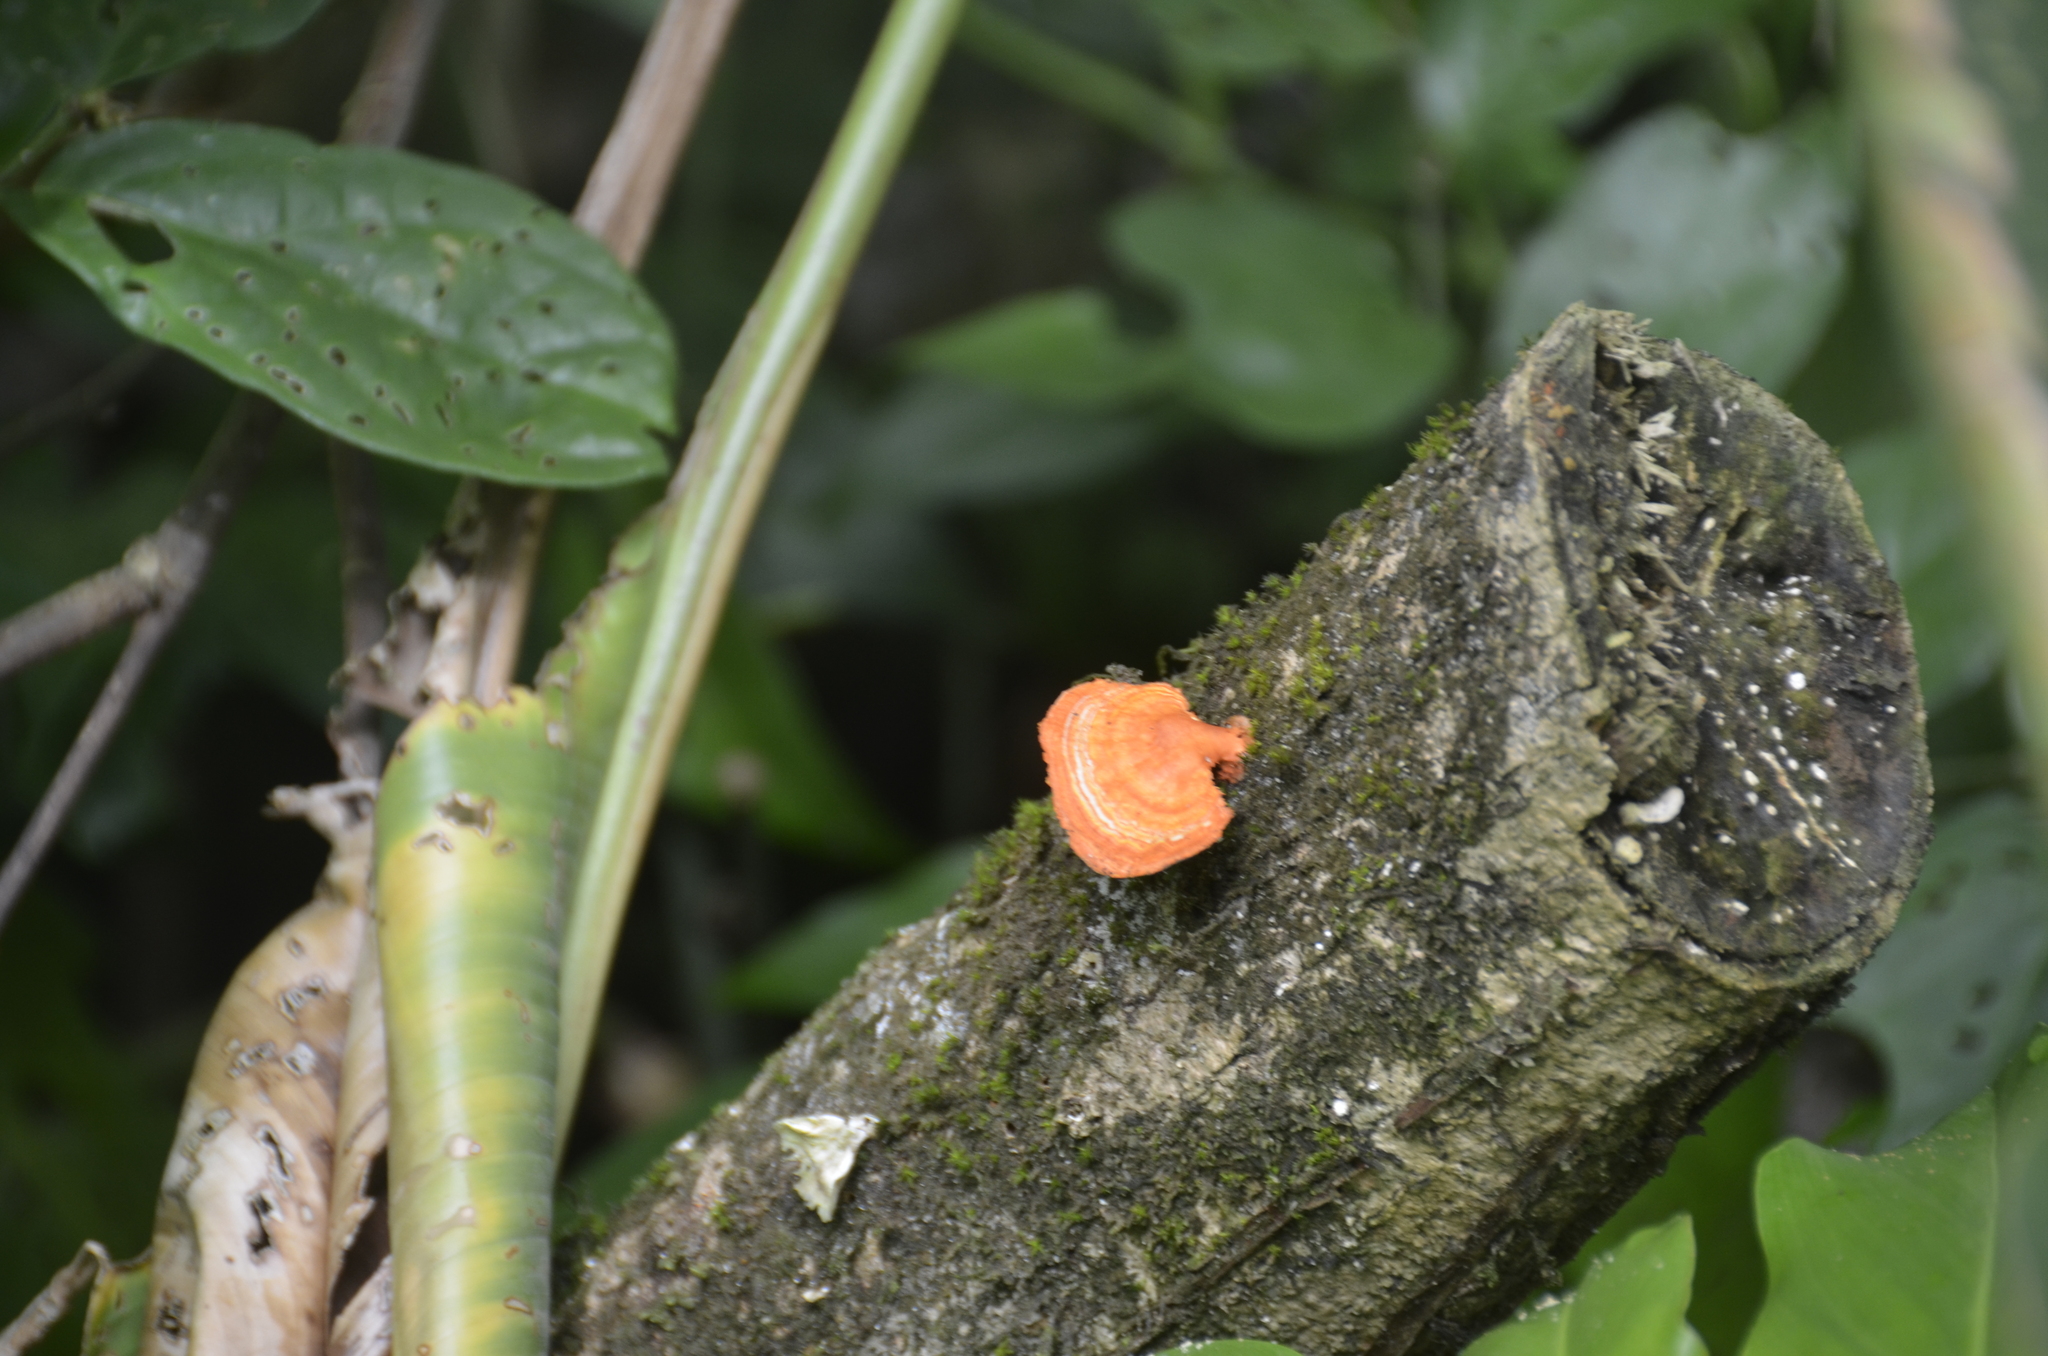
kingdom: Fungi
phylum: Basidiomycota
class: Agaricomycetes
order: Polyporales
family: Polyporaceae
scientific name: Polyporaceae
